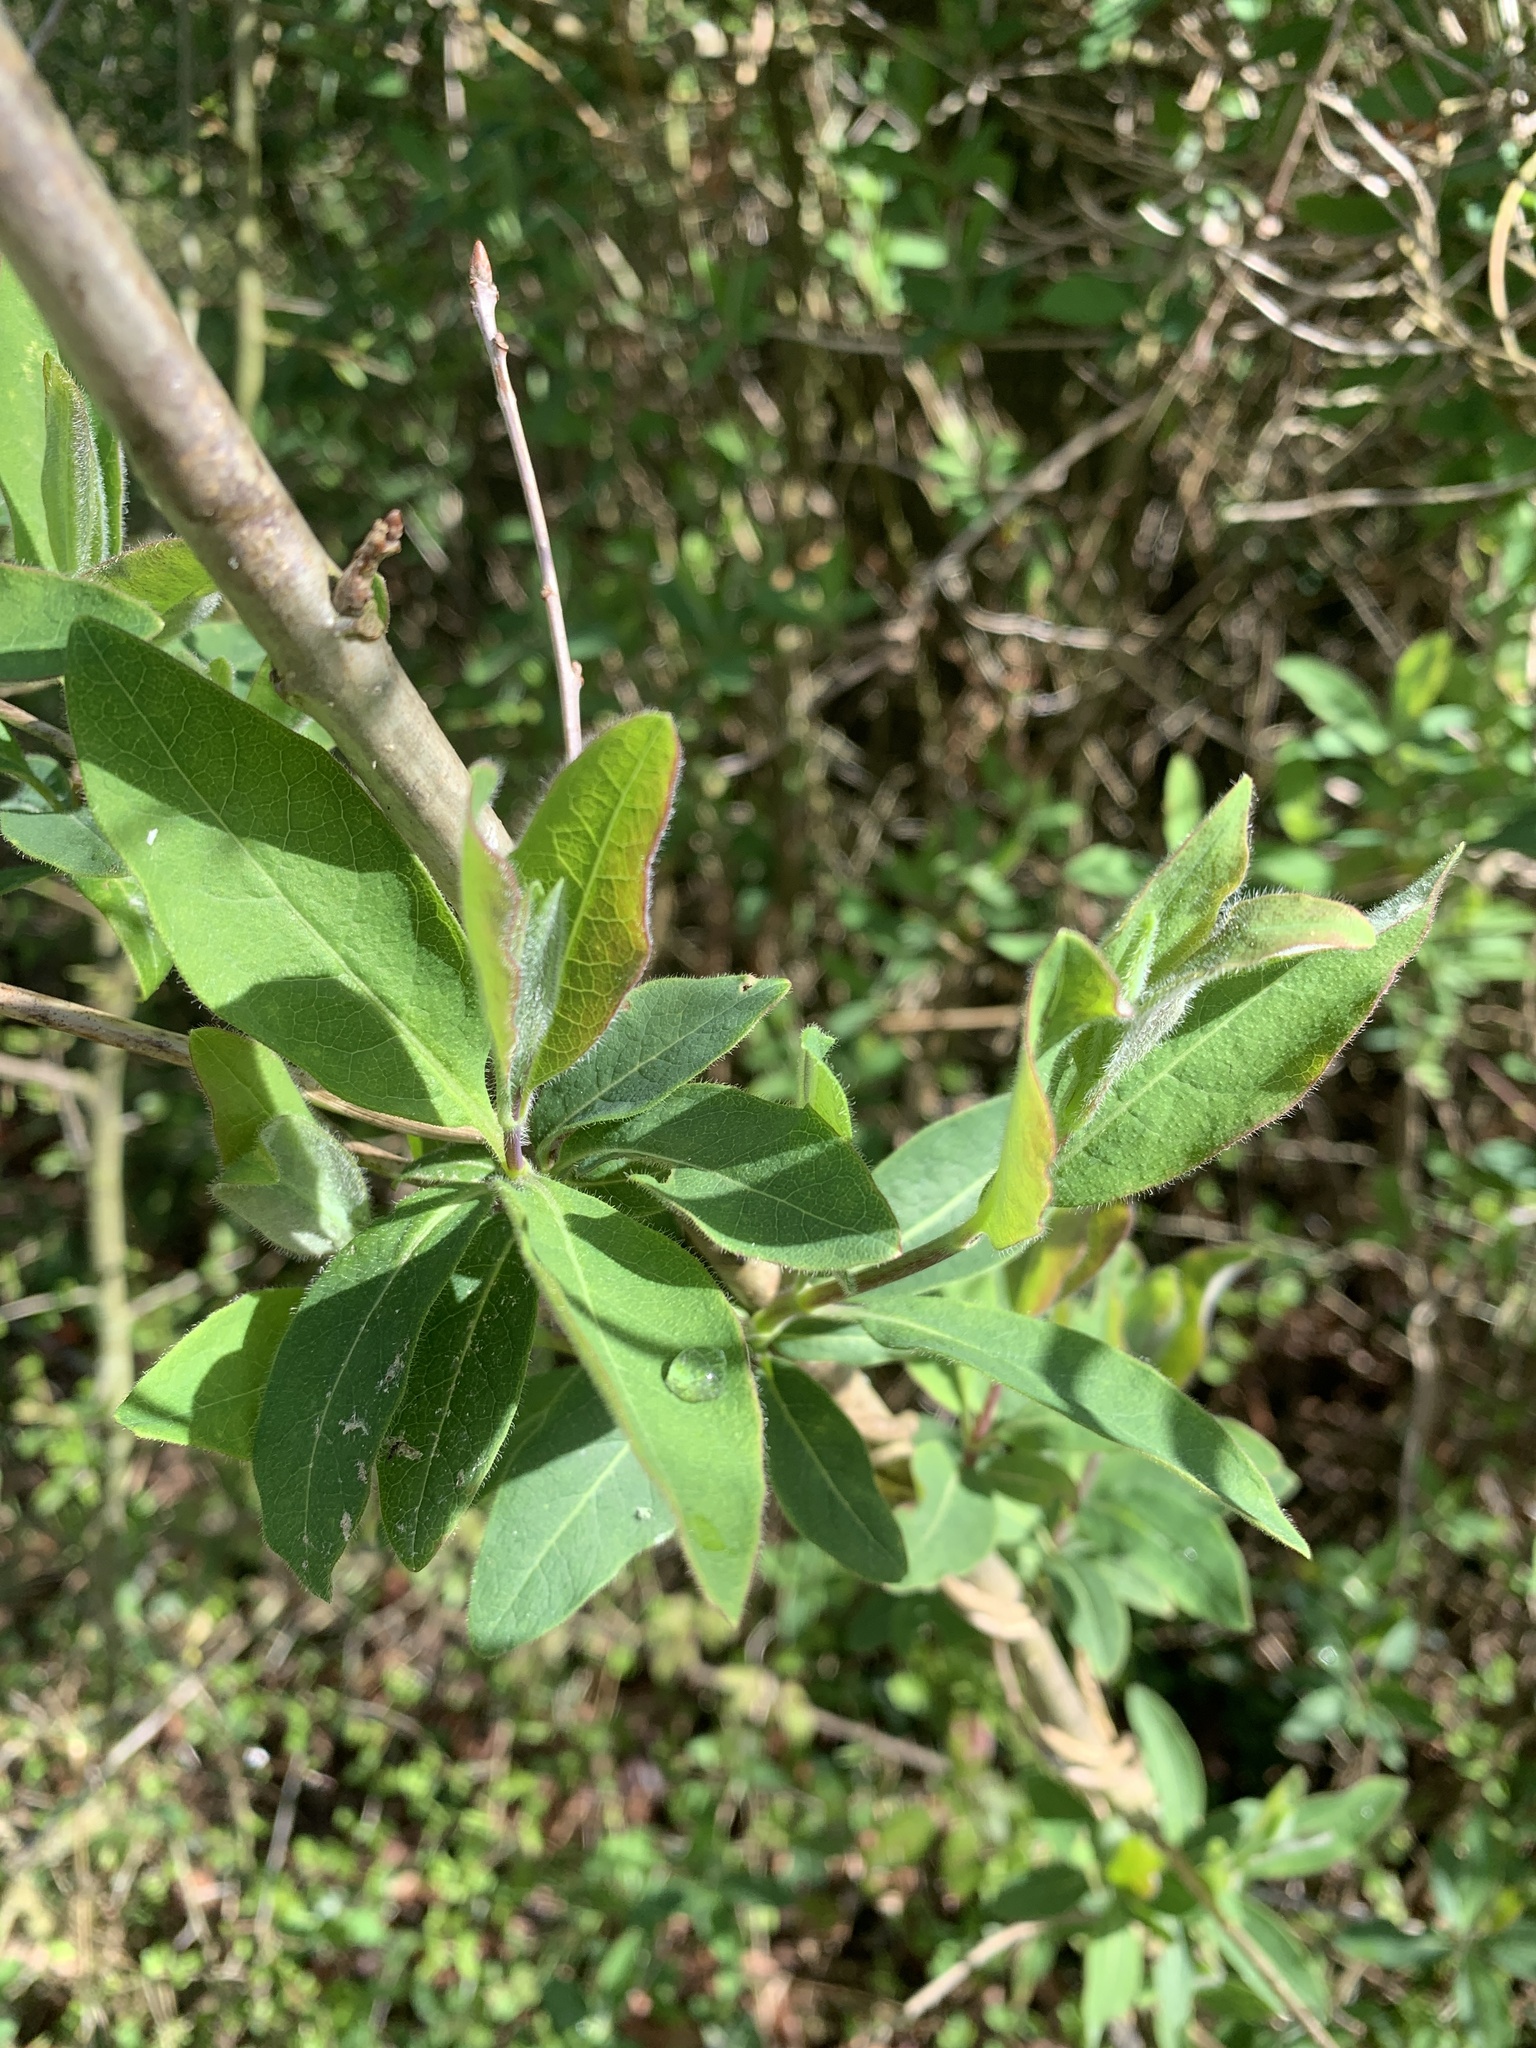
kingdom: Plantae
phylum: Tracheophyta
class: Magnoliopsida
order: Dipsacales
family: Caprifoliaceae
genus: Lonicera
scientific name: Lonicera periclymenum
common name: European honeysuckle
